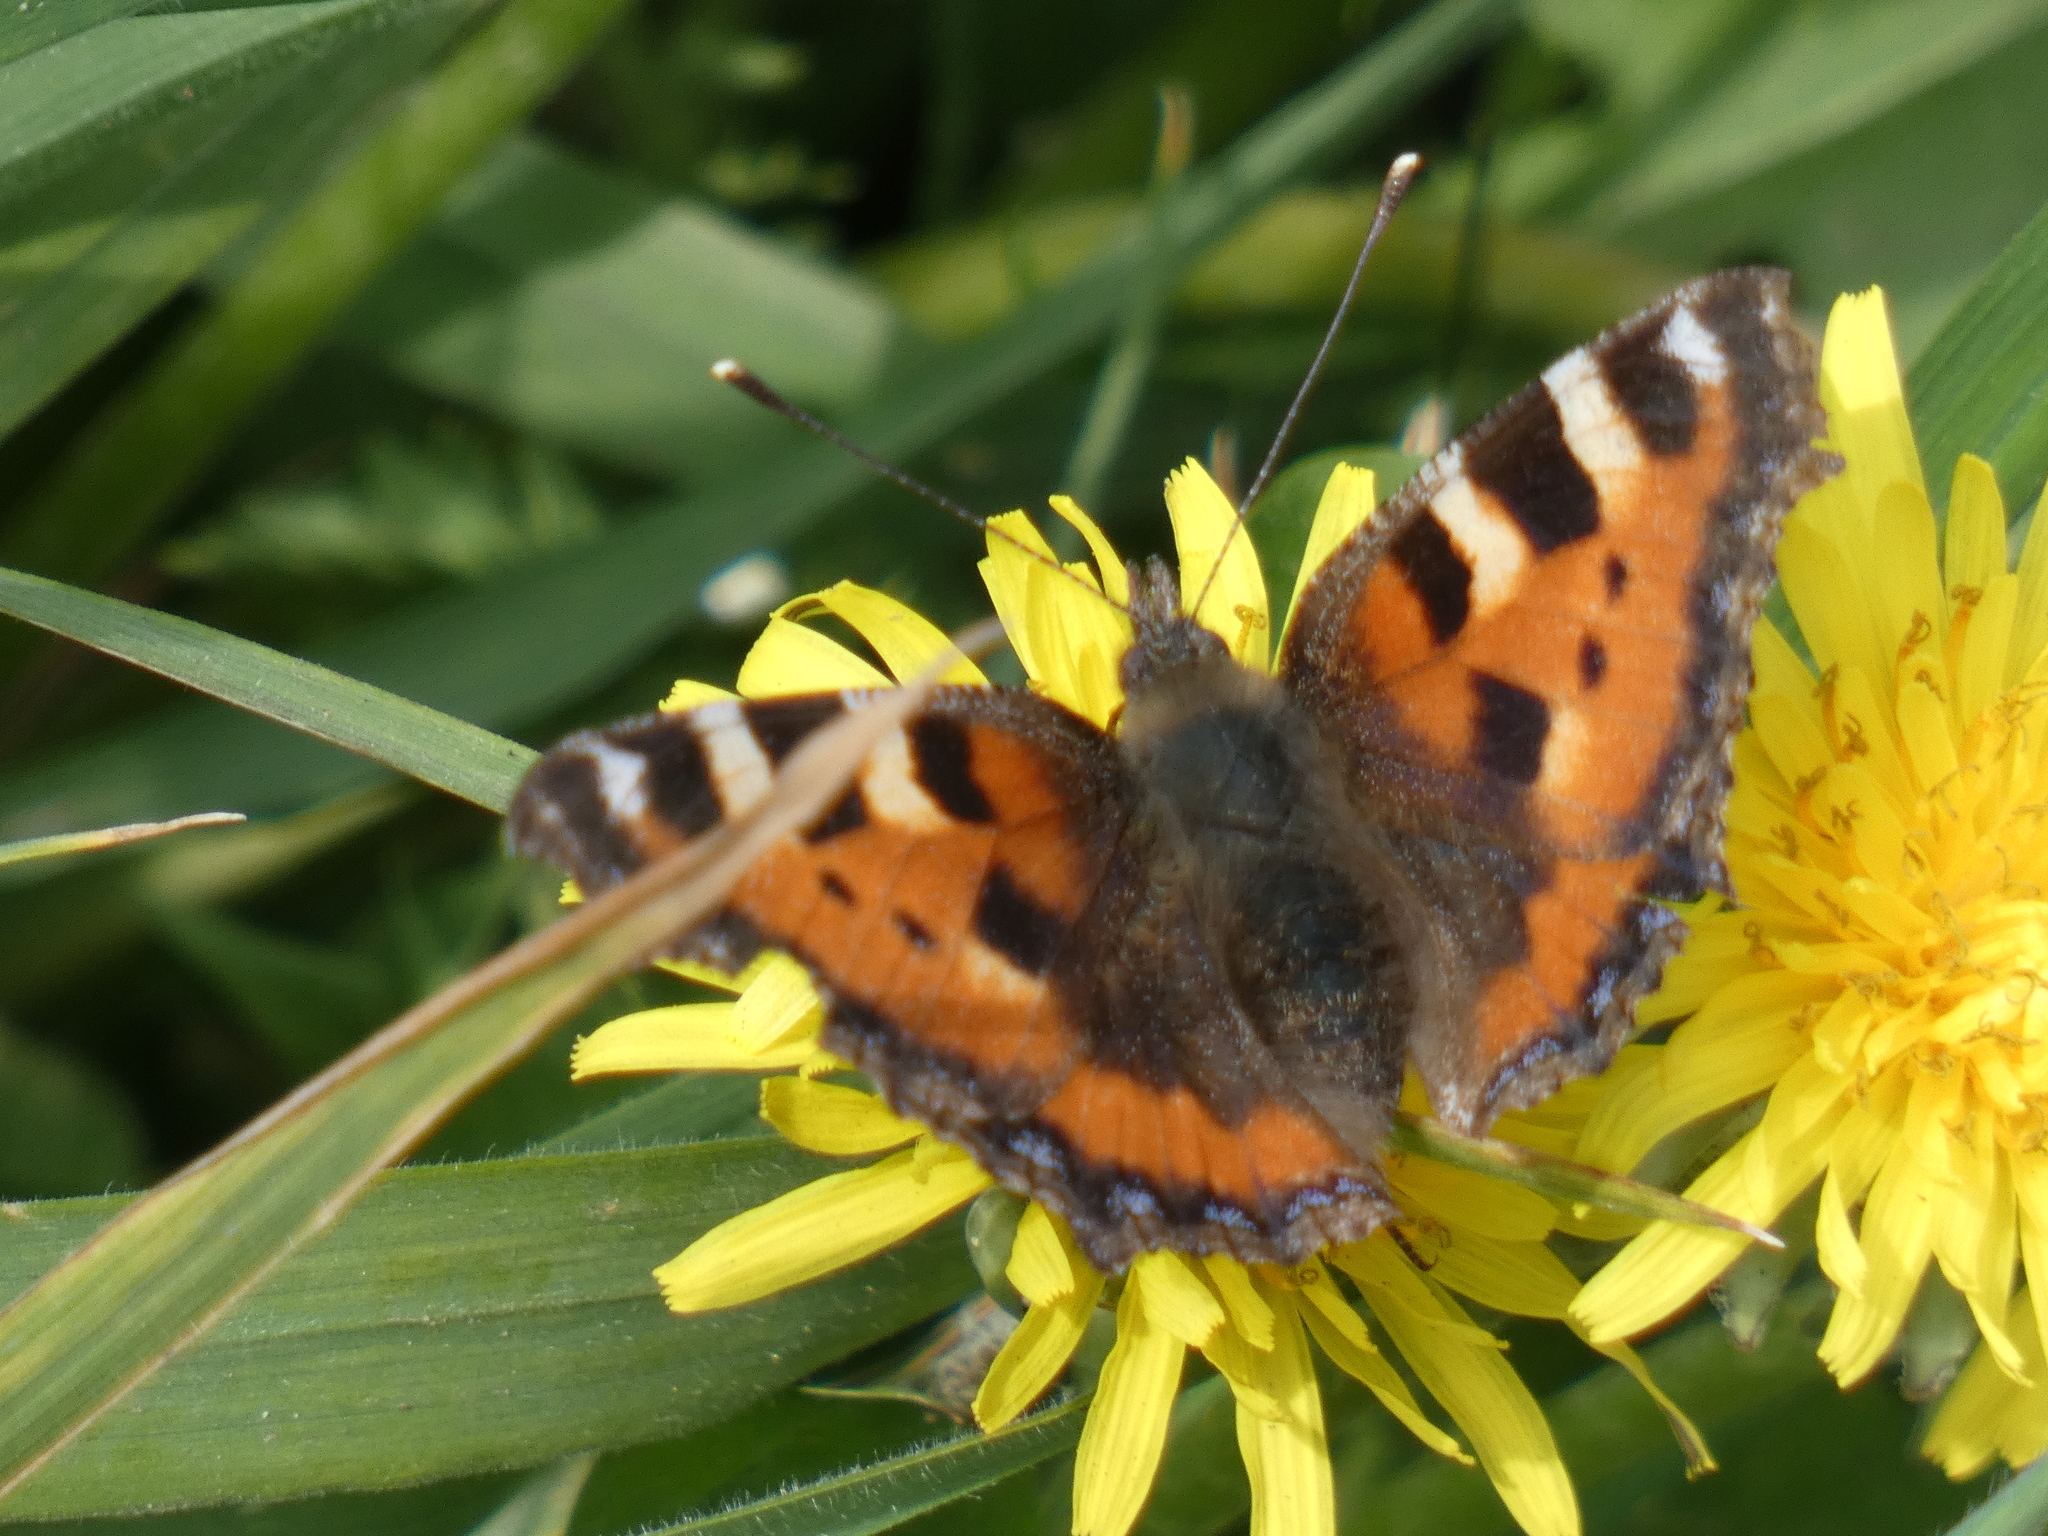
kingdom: Animalia
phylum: Arthropoda
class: Insecta
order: Lepidoptera
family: Nymphalidae
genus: Aglais
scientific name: Aglais urticae
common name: Small tortoiseshell
